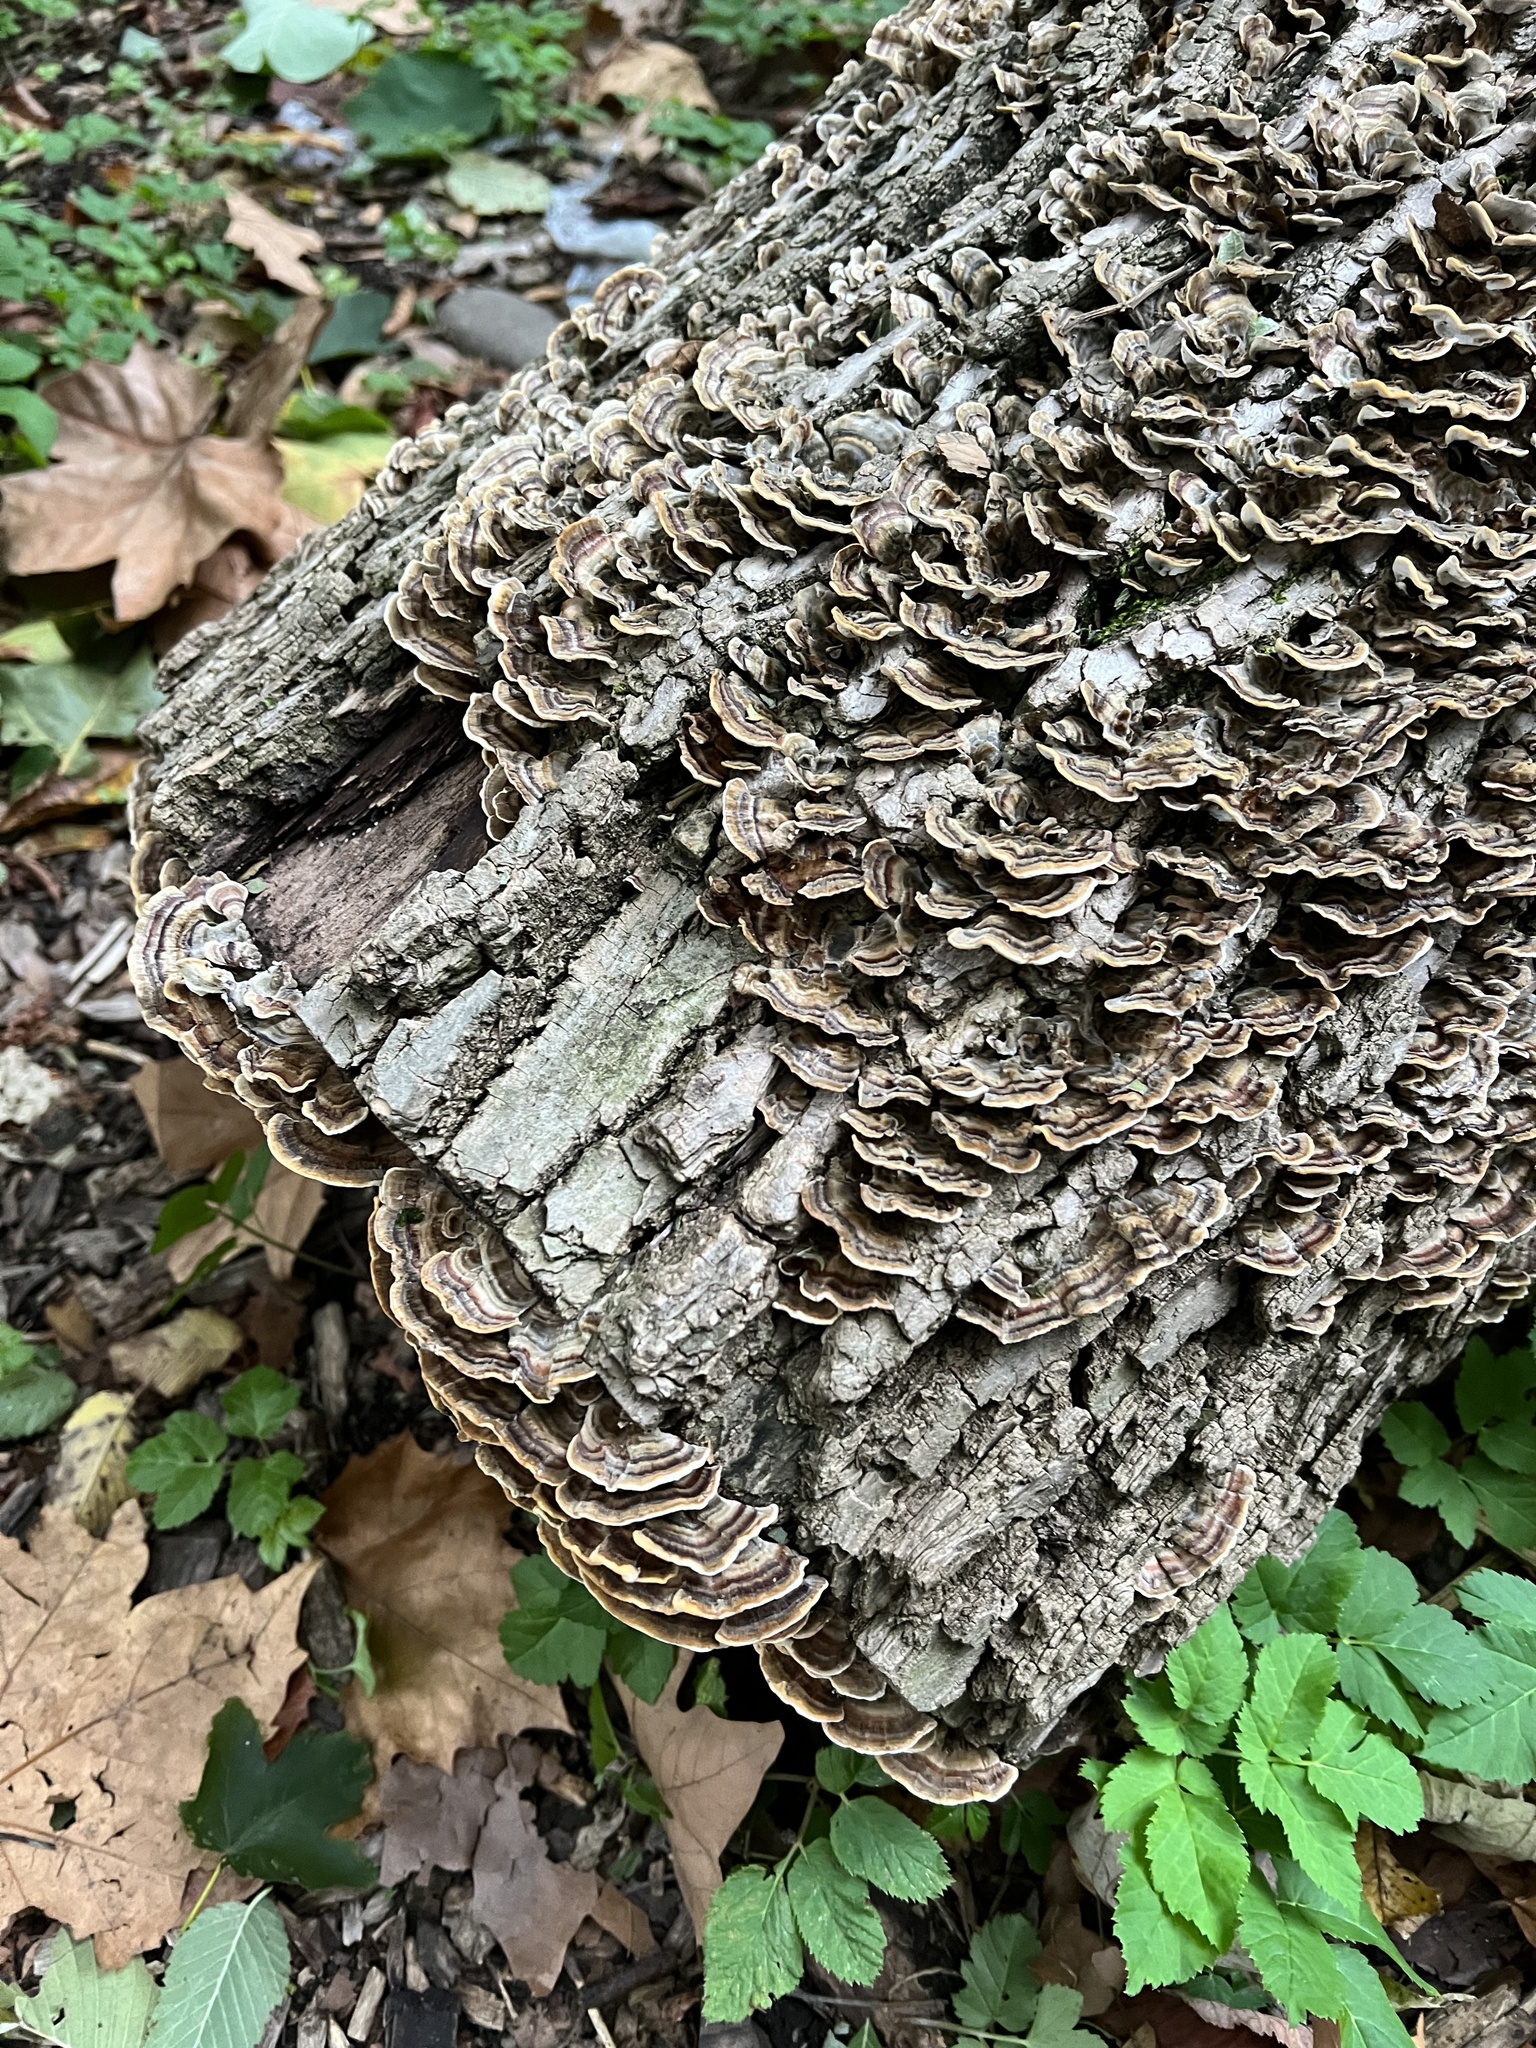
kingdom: Fungi
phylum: Basidiomycota
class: Agaricomycetes
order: Polyporales
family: Polyporaceae
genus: Trametes
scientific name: Trametes versicolor
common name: Turkeytail
